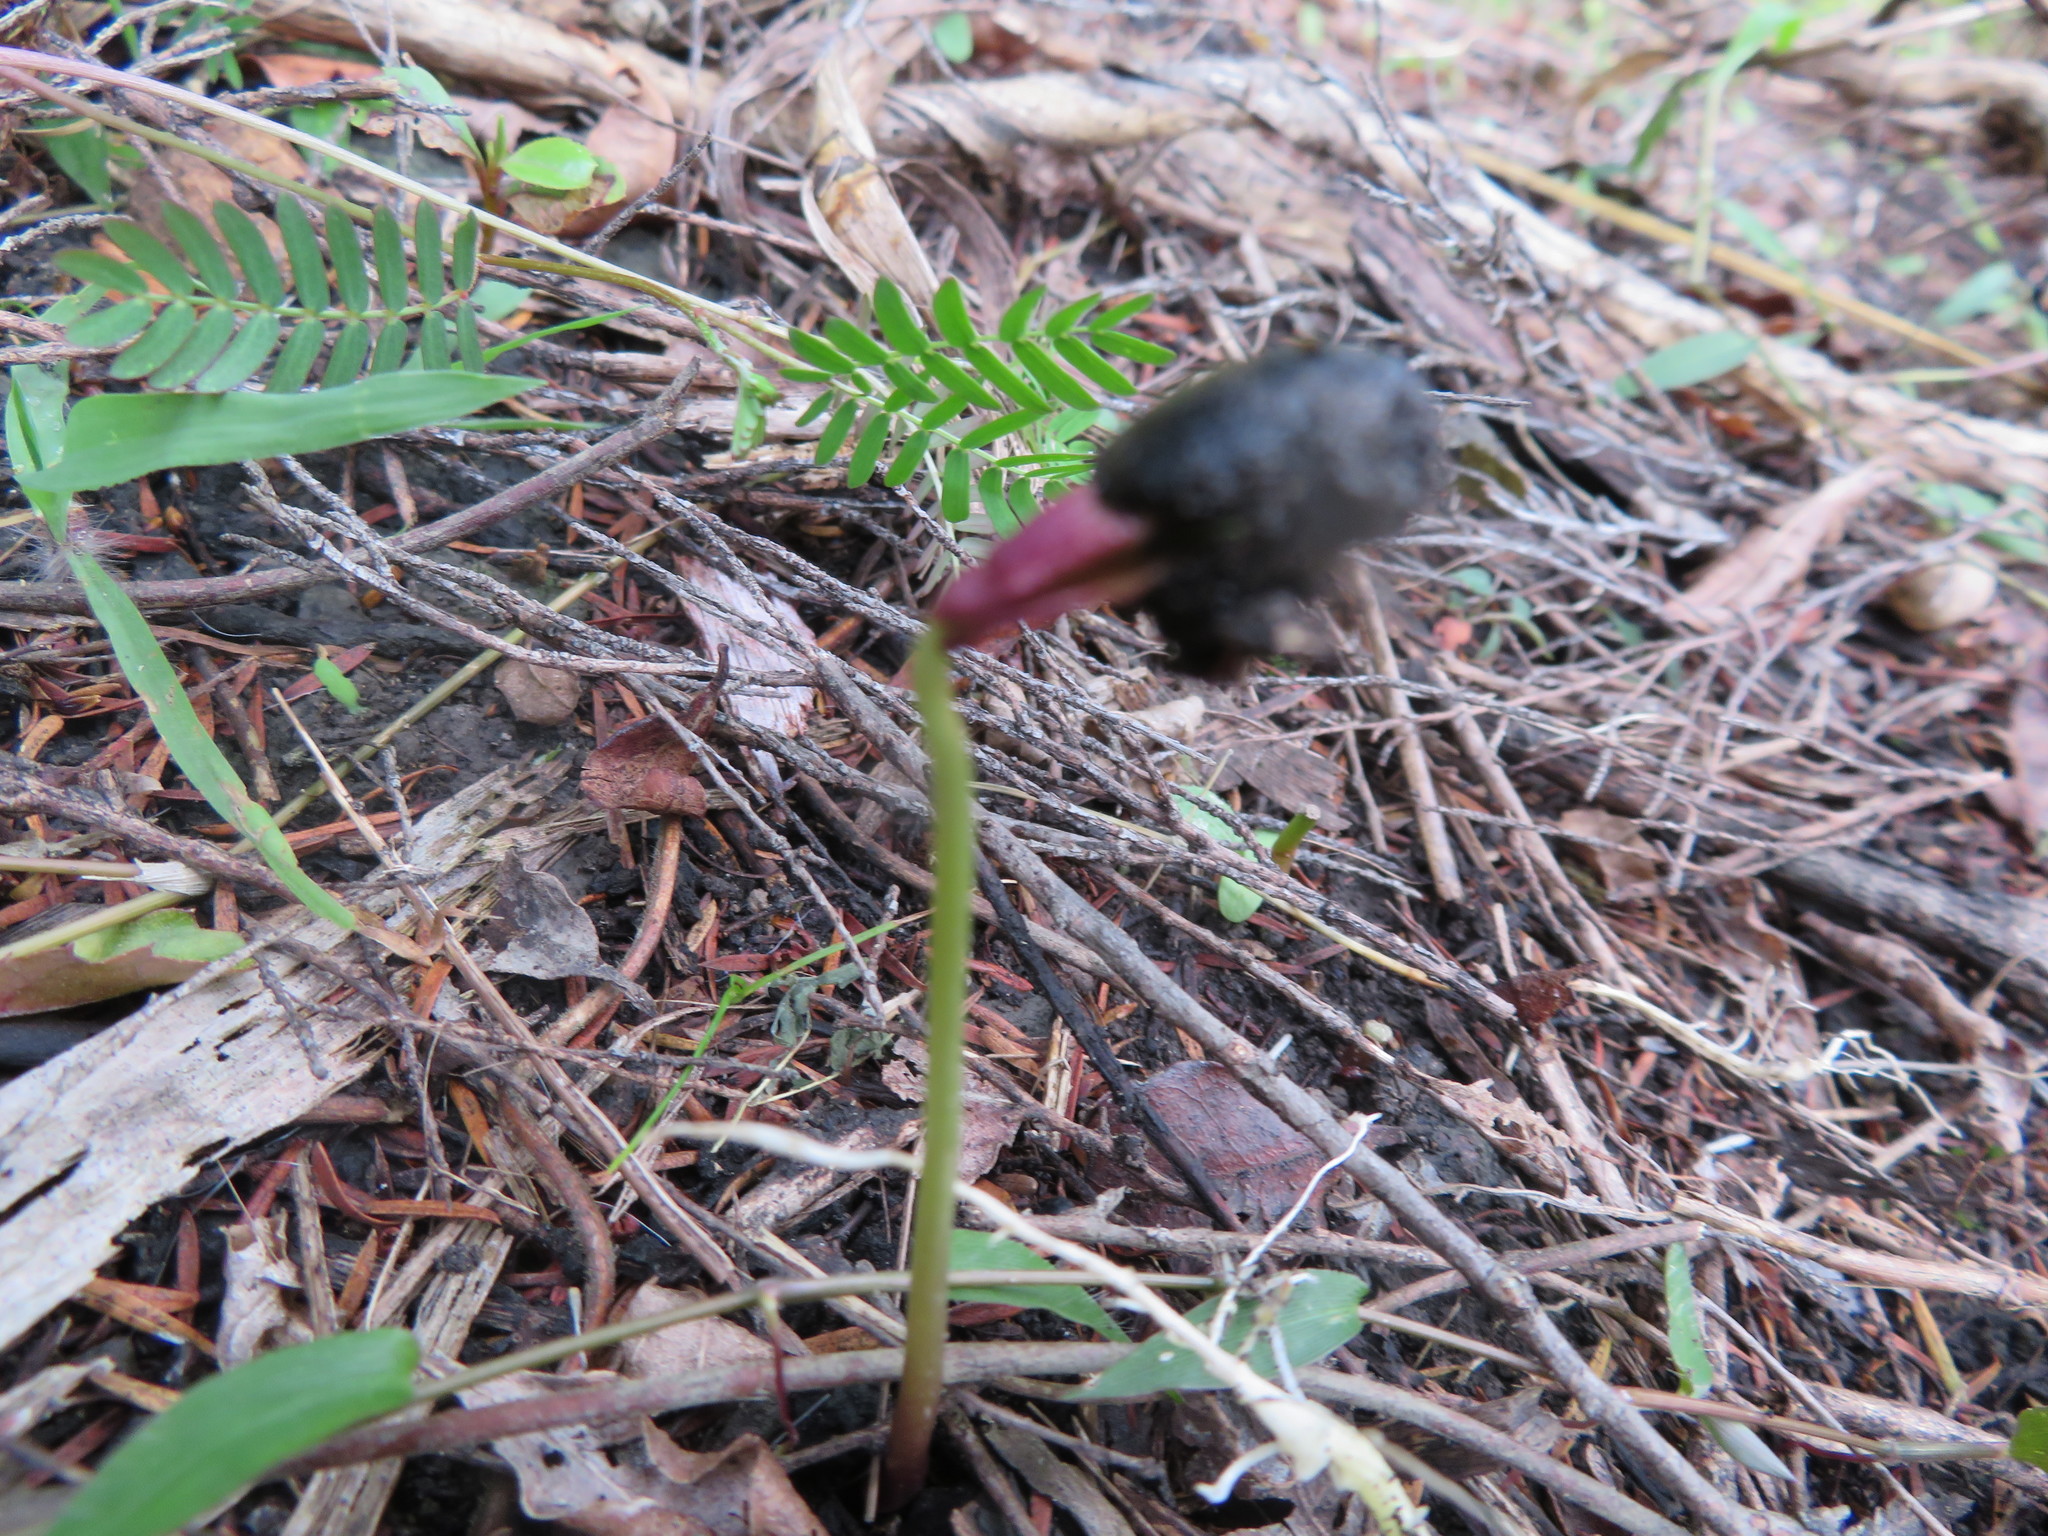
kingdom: Plantae
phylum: Tracheophyta
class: Magnoliopsida
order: Fabales
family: Fabaceae
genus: Paraserianthes
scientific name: Paraserianthes lophantha
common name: Plume albizia
